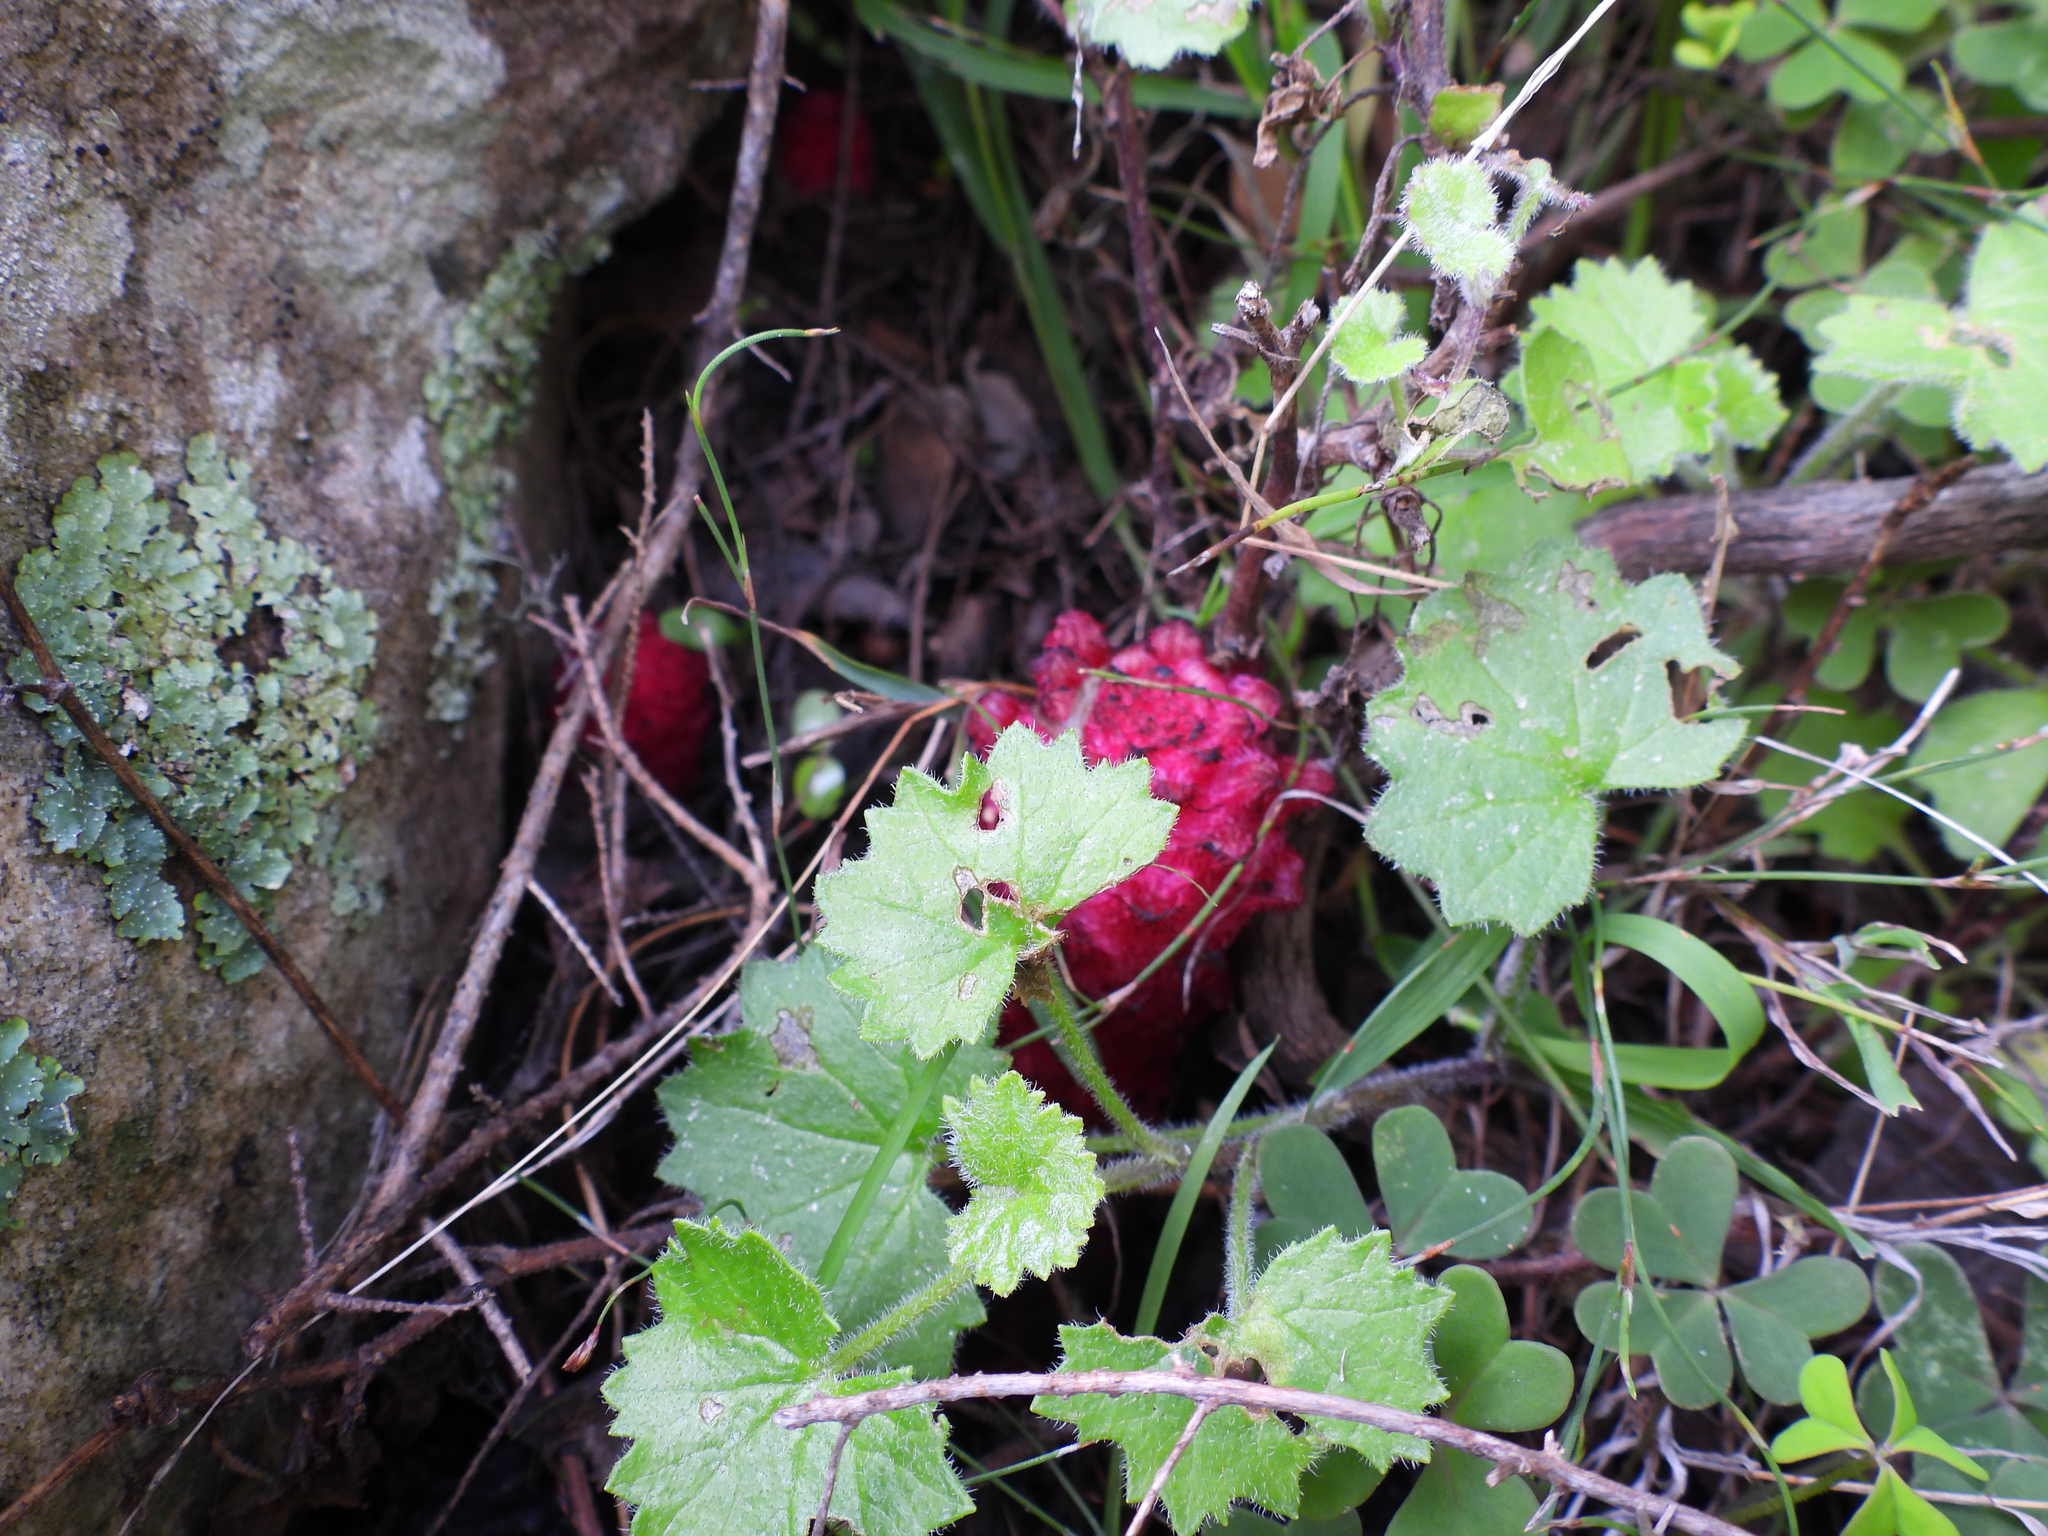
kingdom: Plantae
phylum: Tracheophyta
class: Magnoliopsida
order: Lamiales
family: Orobanchaceae
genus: Hyobanche
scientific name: Hyobanche sanguinea
